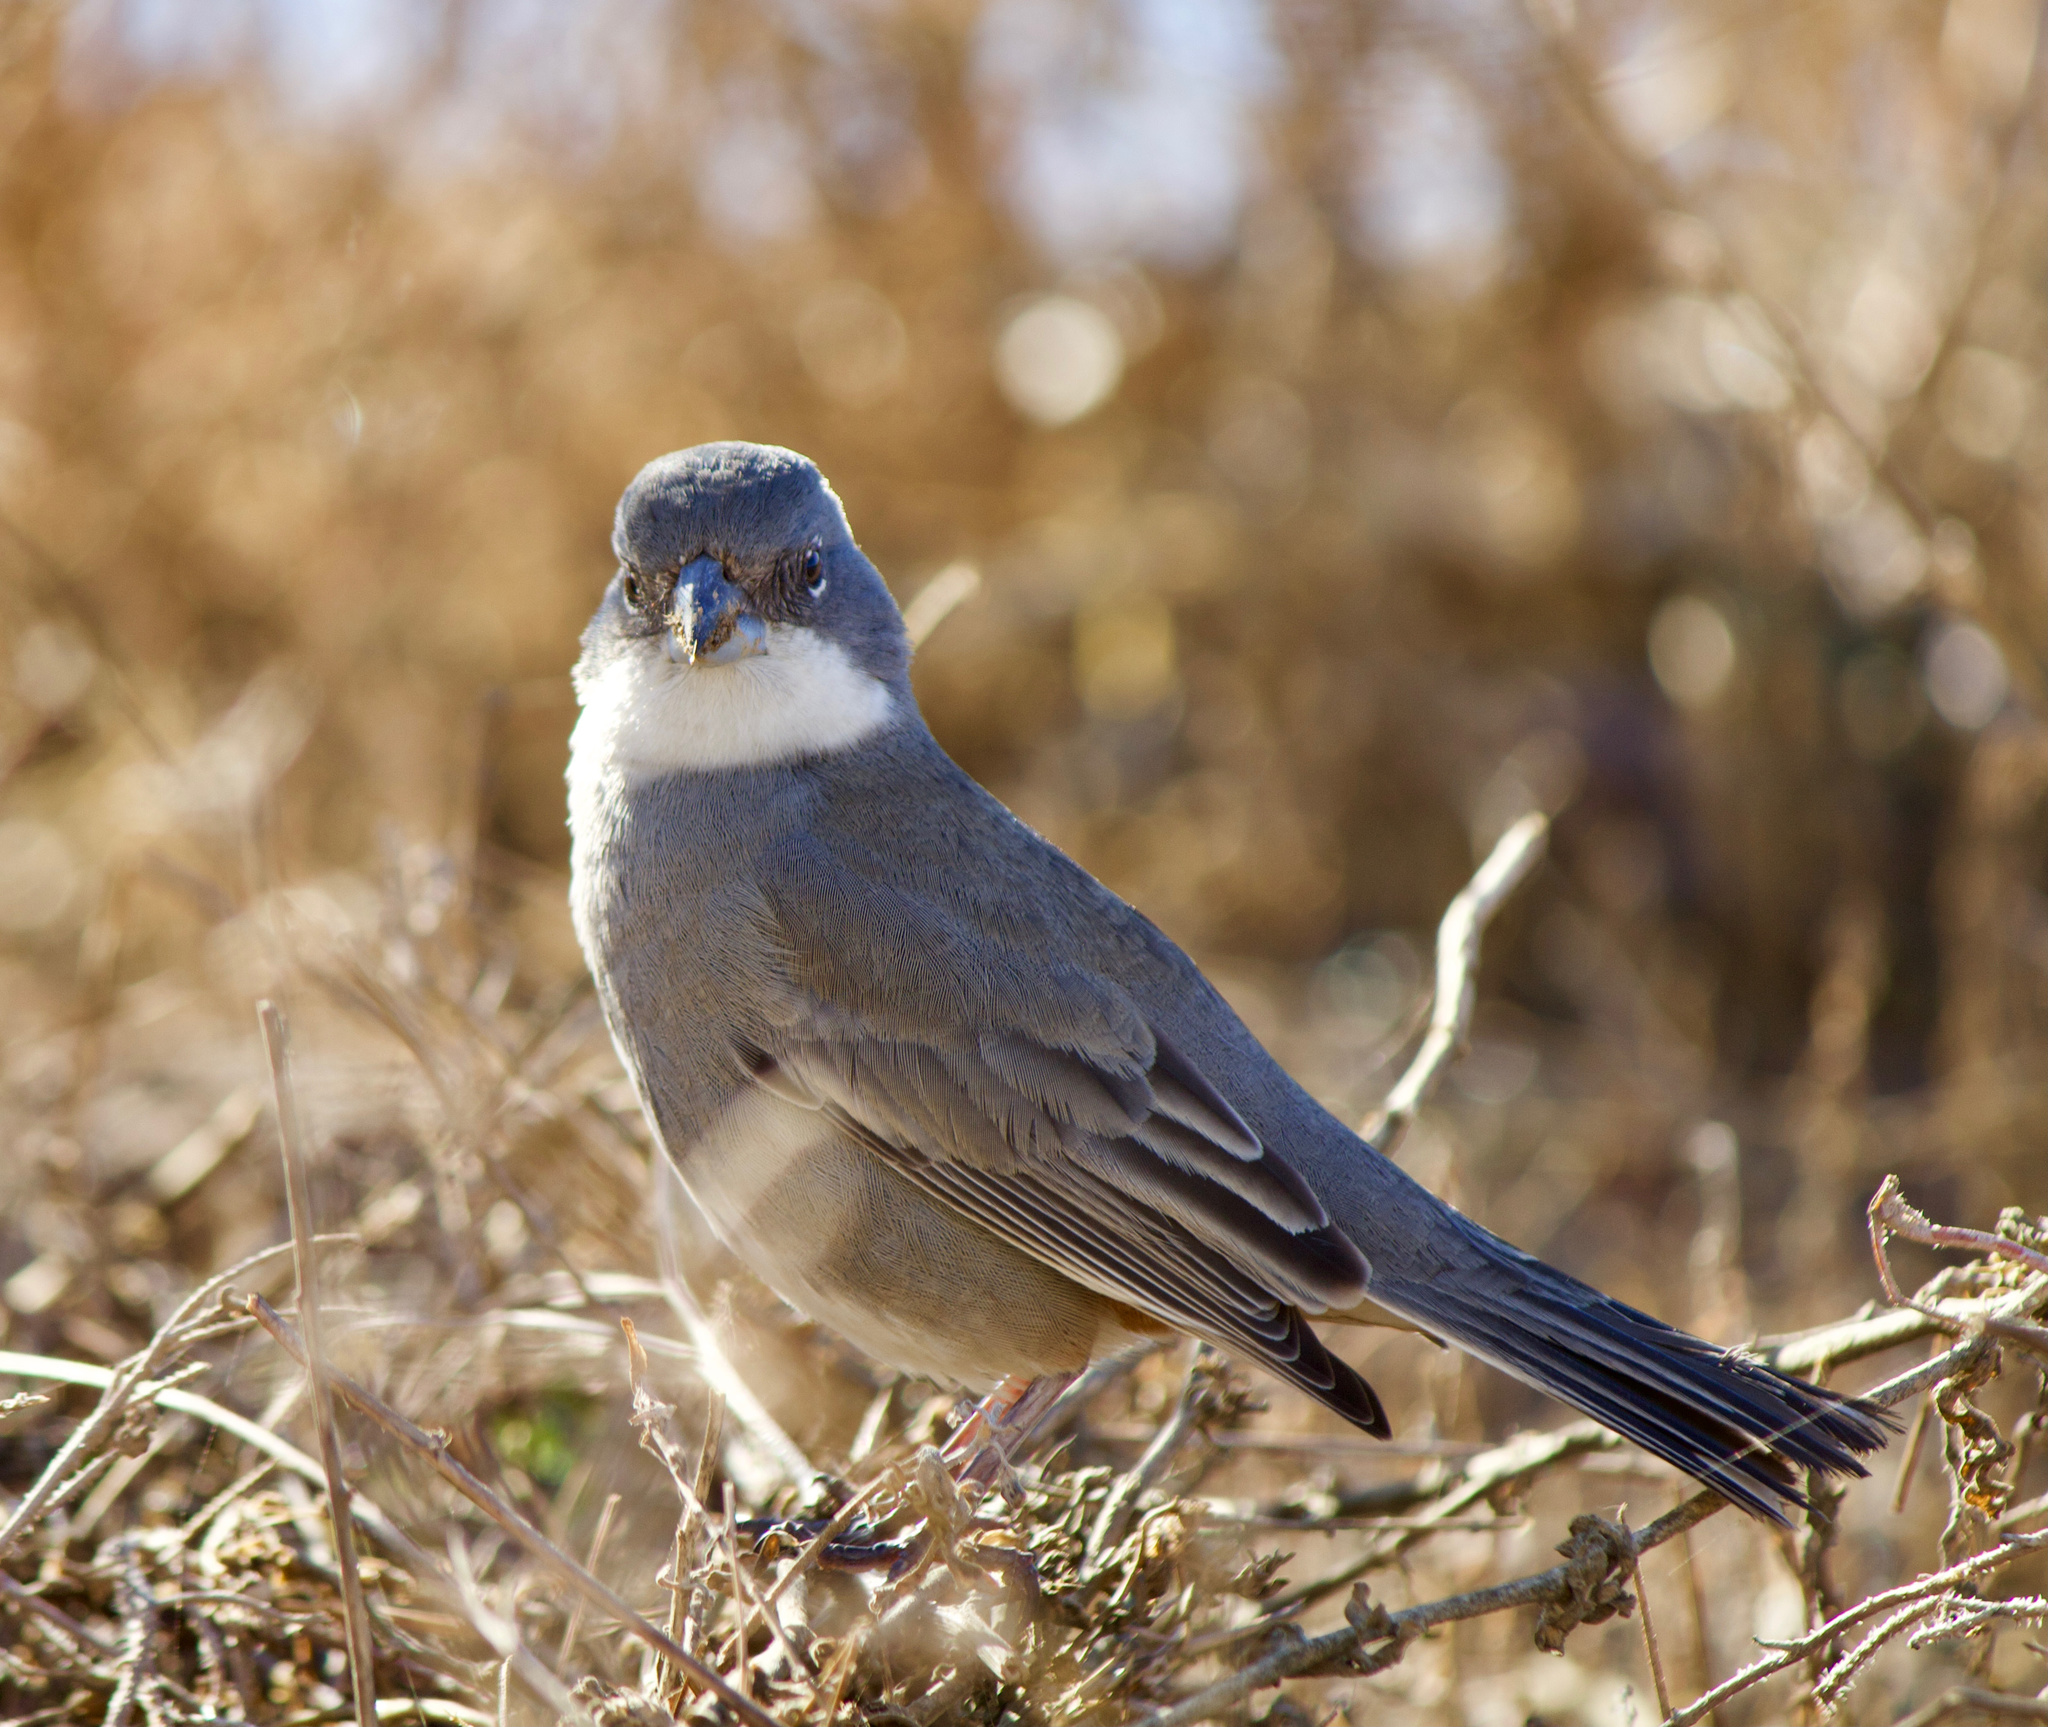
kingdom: Animalia
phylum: Chordata
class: Aves
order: Passeriformes
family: Thraupidae
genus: Diuca
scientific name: Diuca diuca
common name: Common diuca finch
